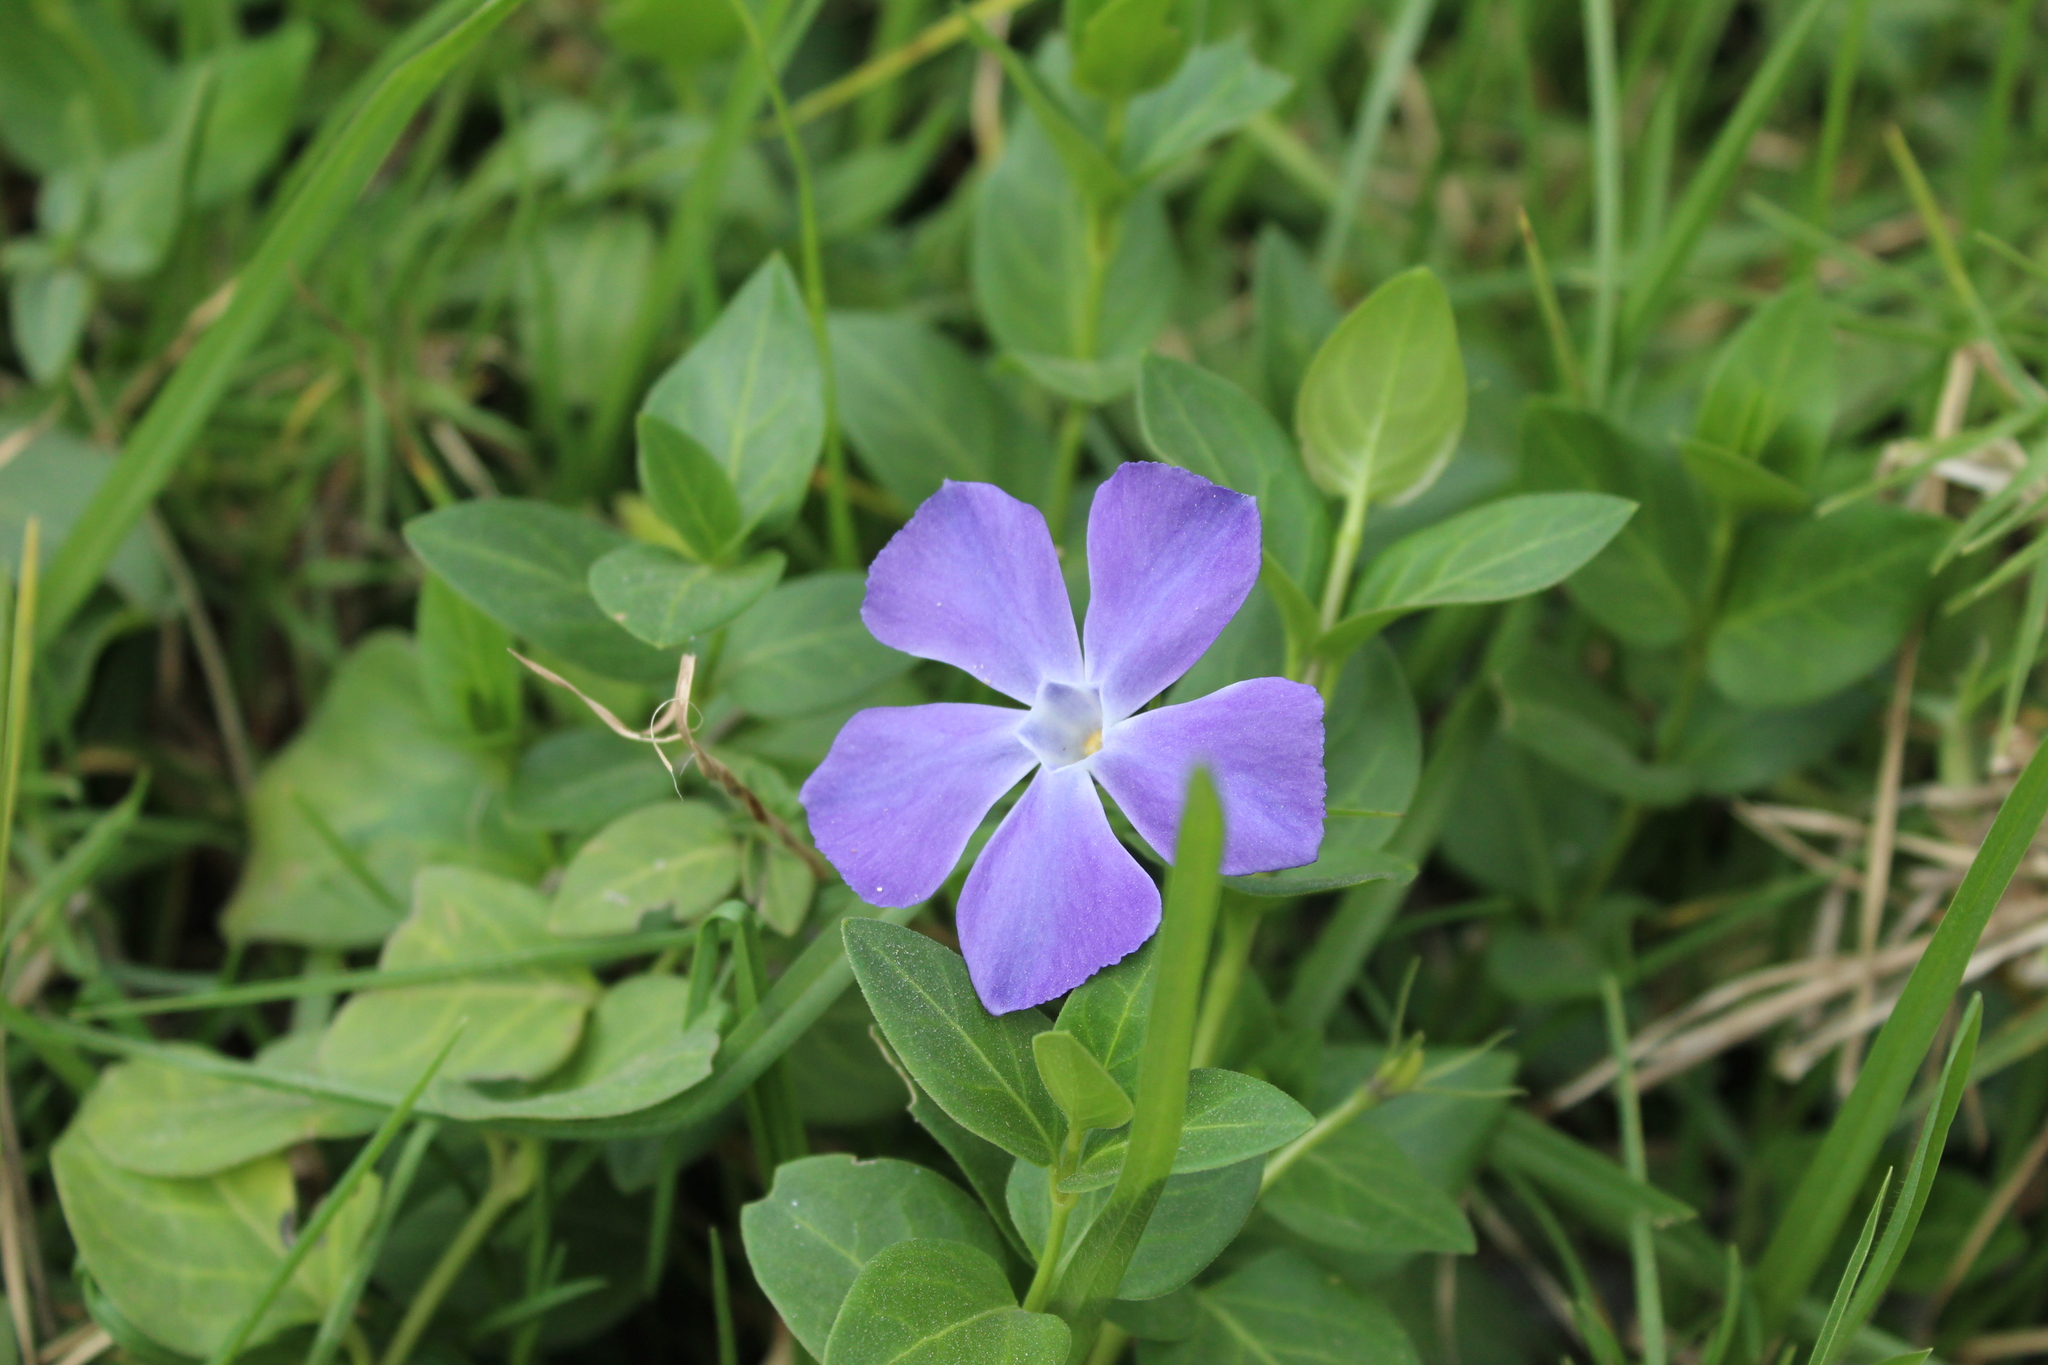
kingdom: Plantae
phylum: Tracheophyta
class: Magnoliopsida
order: Gentianales
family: Apocynaceae
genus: Vinca
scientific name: Vinca major
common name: Greater periwinkle
